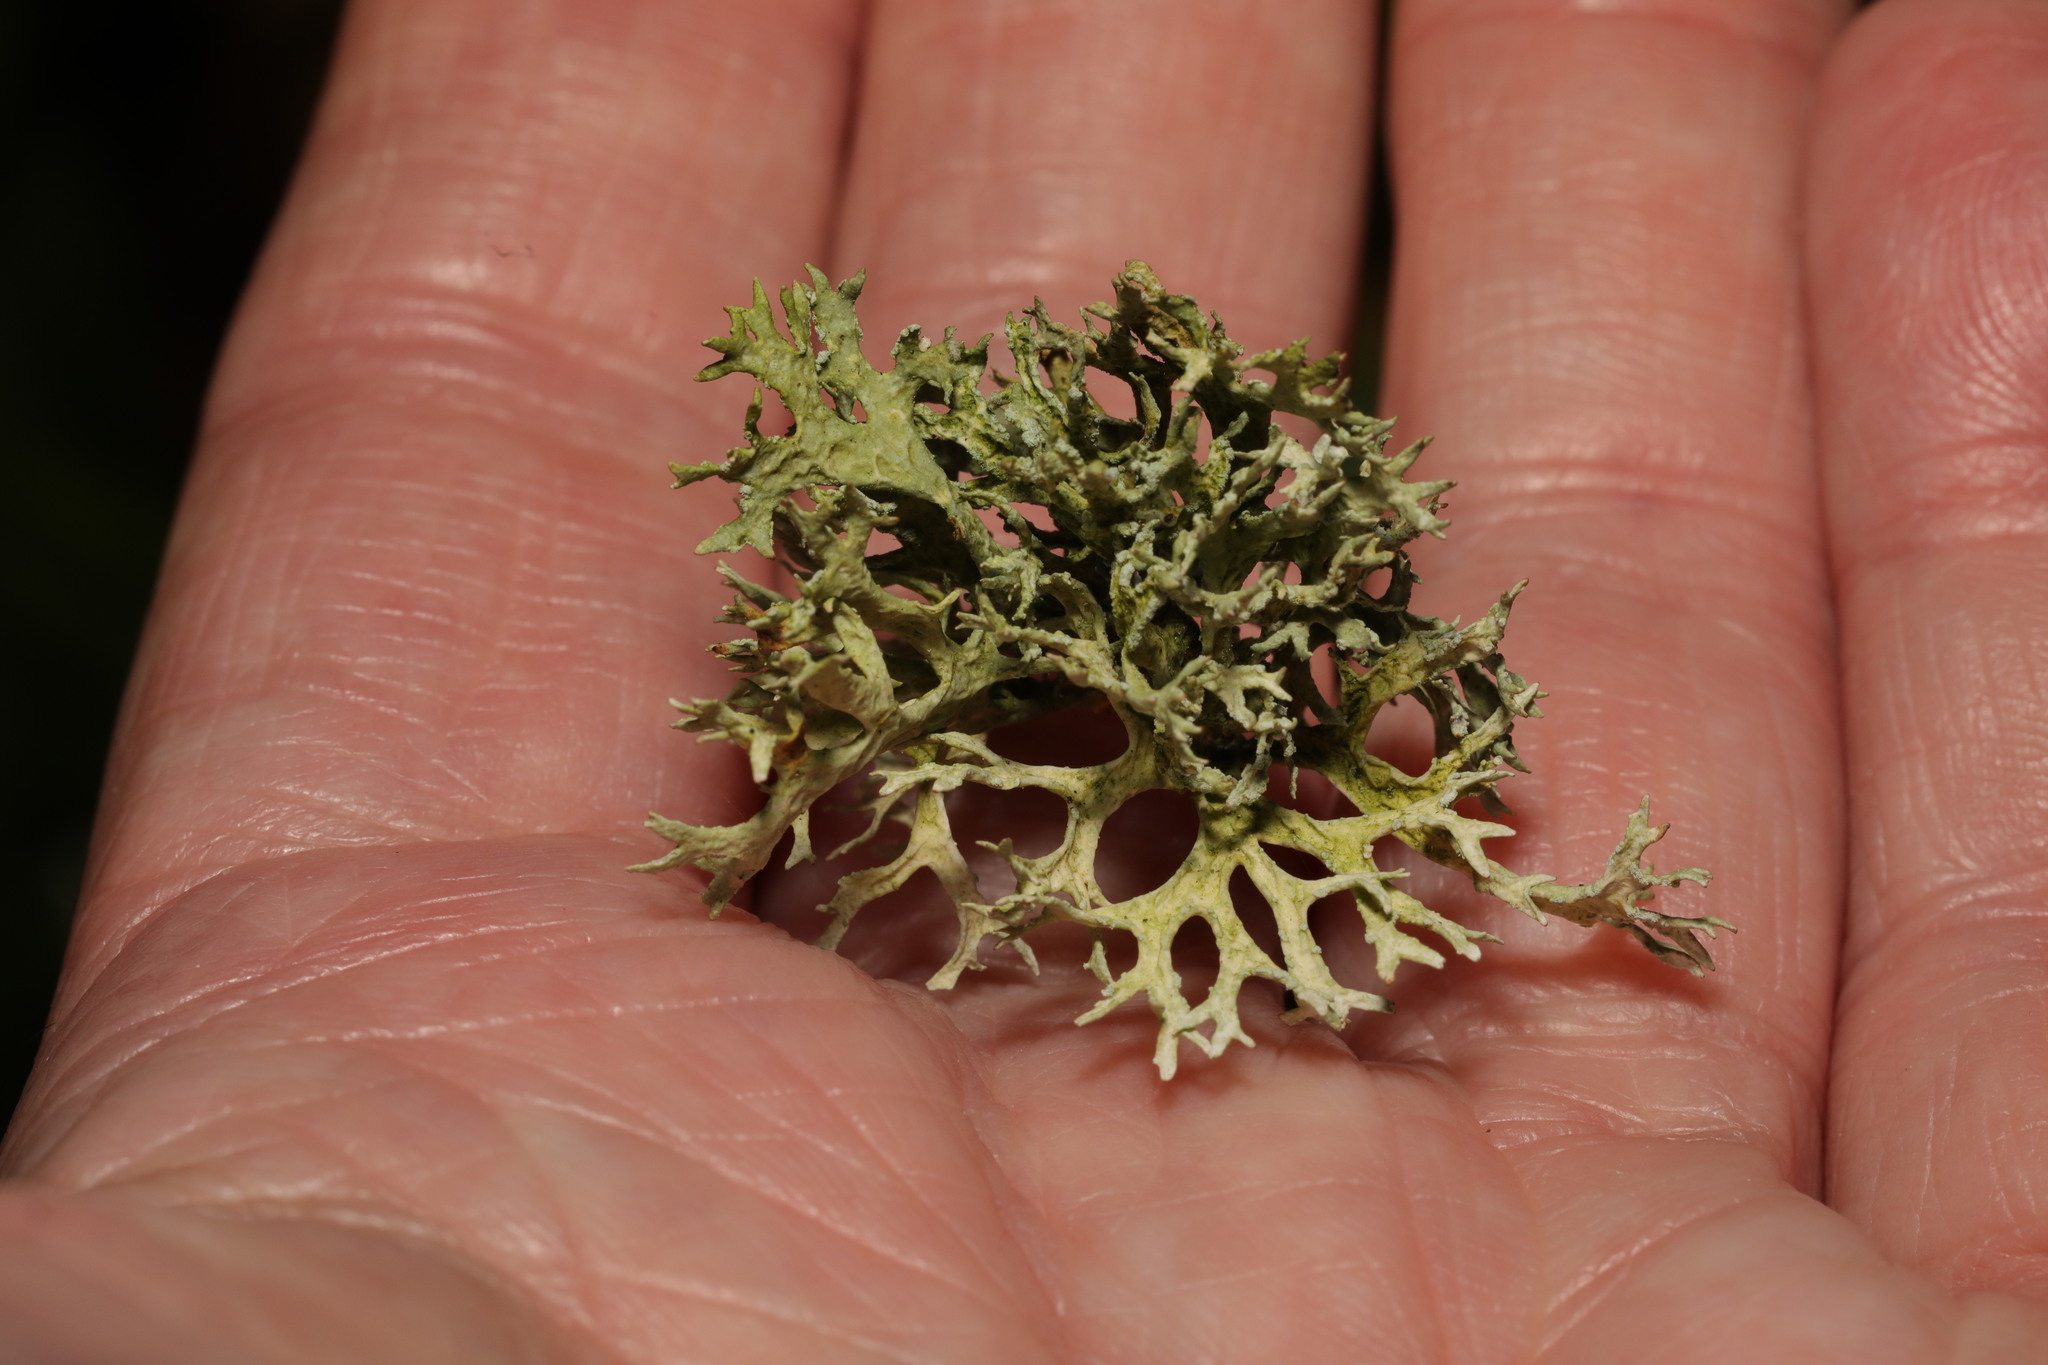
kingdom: Fungi
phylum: Ascomycota
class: Lecanoromycetes
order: Lecanorales
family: Parmeliaceae
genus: Evernia
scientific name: Evernia prunastri
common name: Oak moss
